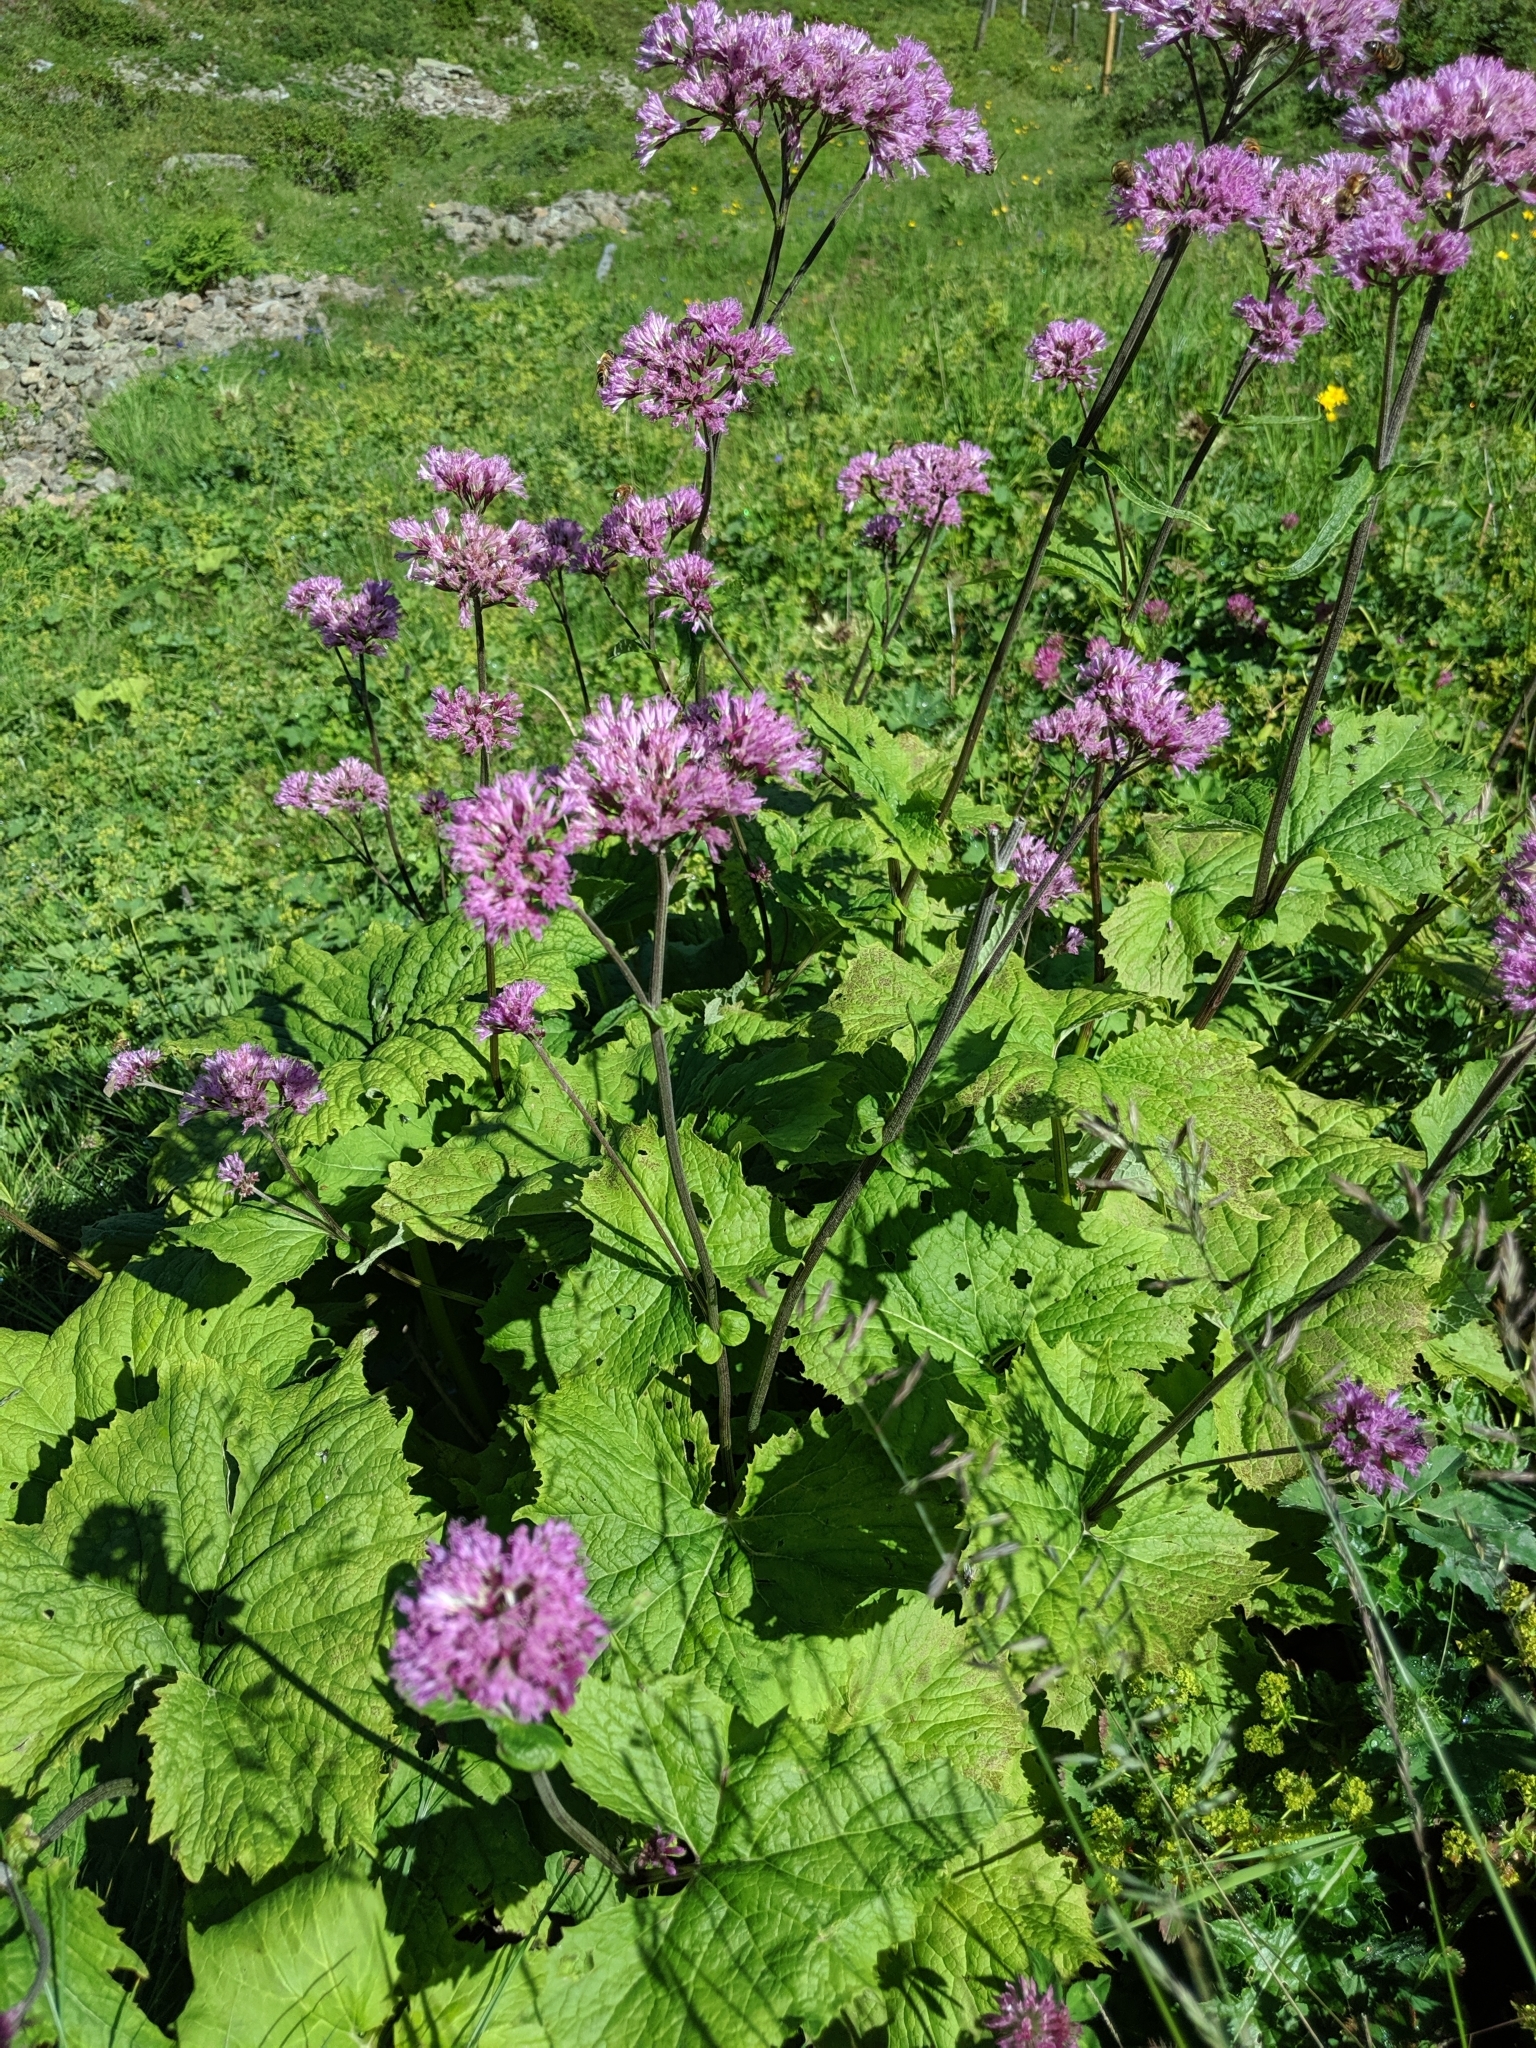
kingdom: Plantae
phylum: Tracheophyta
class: Magnoliopsida
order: Asterales
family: Asteraceae
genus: Adenostyles
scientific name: Adenostyles alliariae
